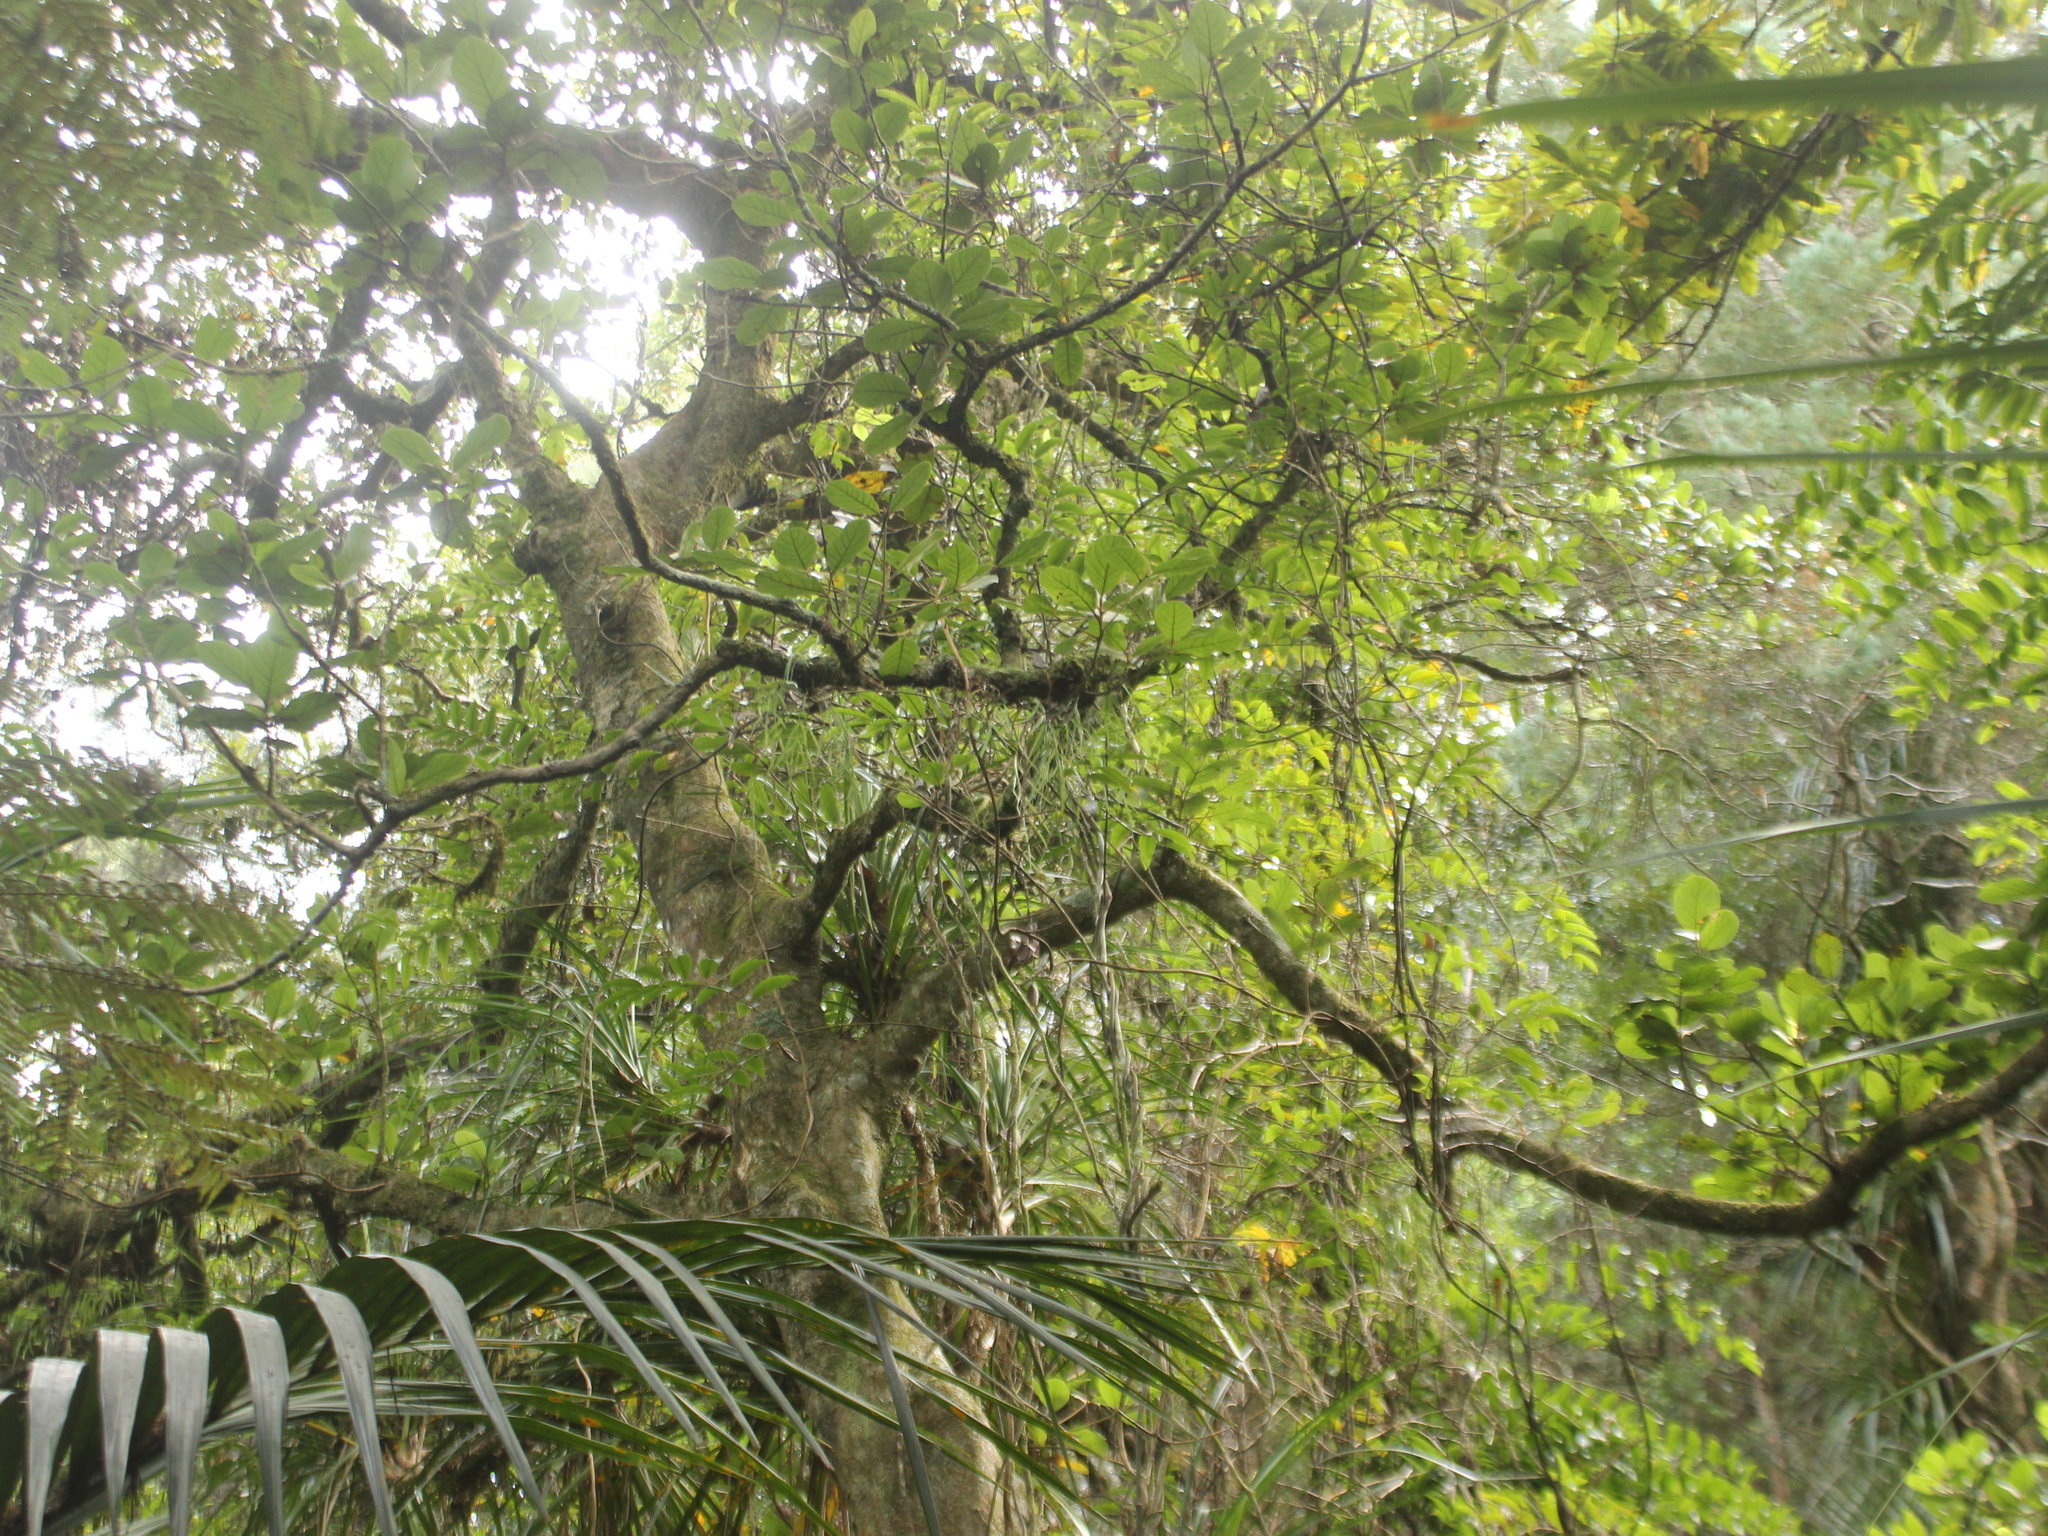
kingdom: Plantae
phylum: Tracheophyta
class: Magnoliopsida
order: Laurales
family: Lauraceae
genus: Beilschmiedia
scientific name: Beilschmiedia tarairi
